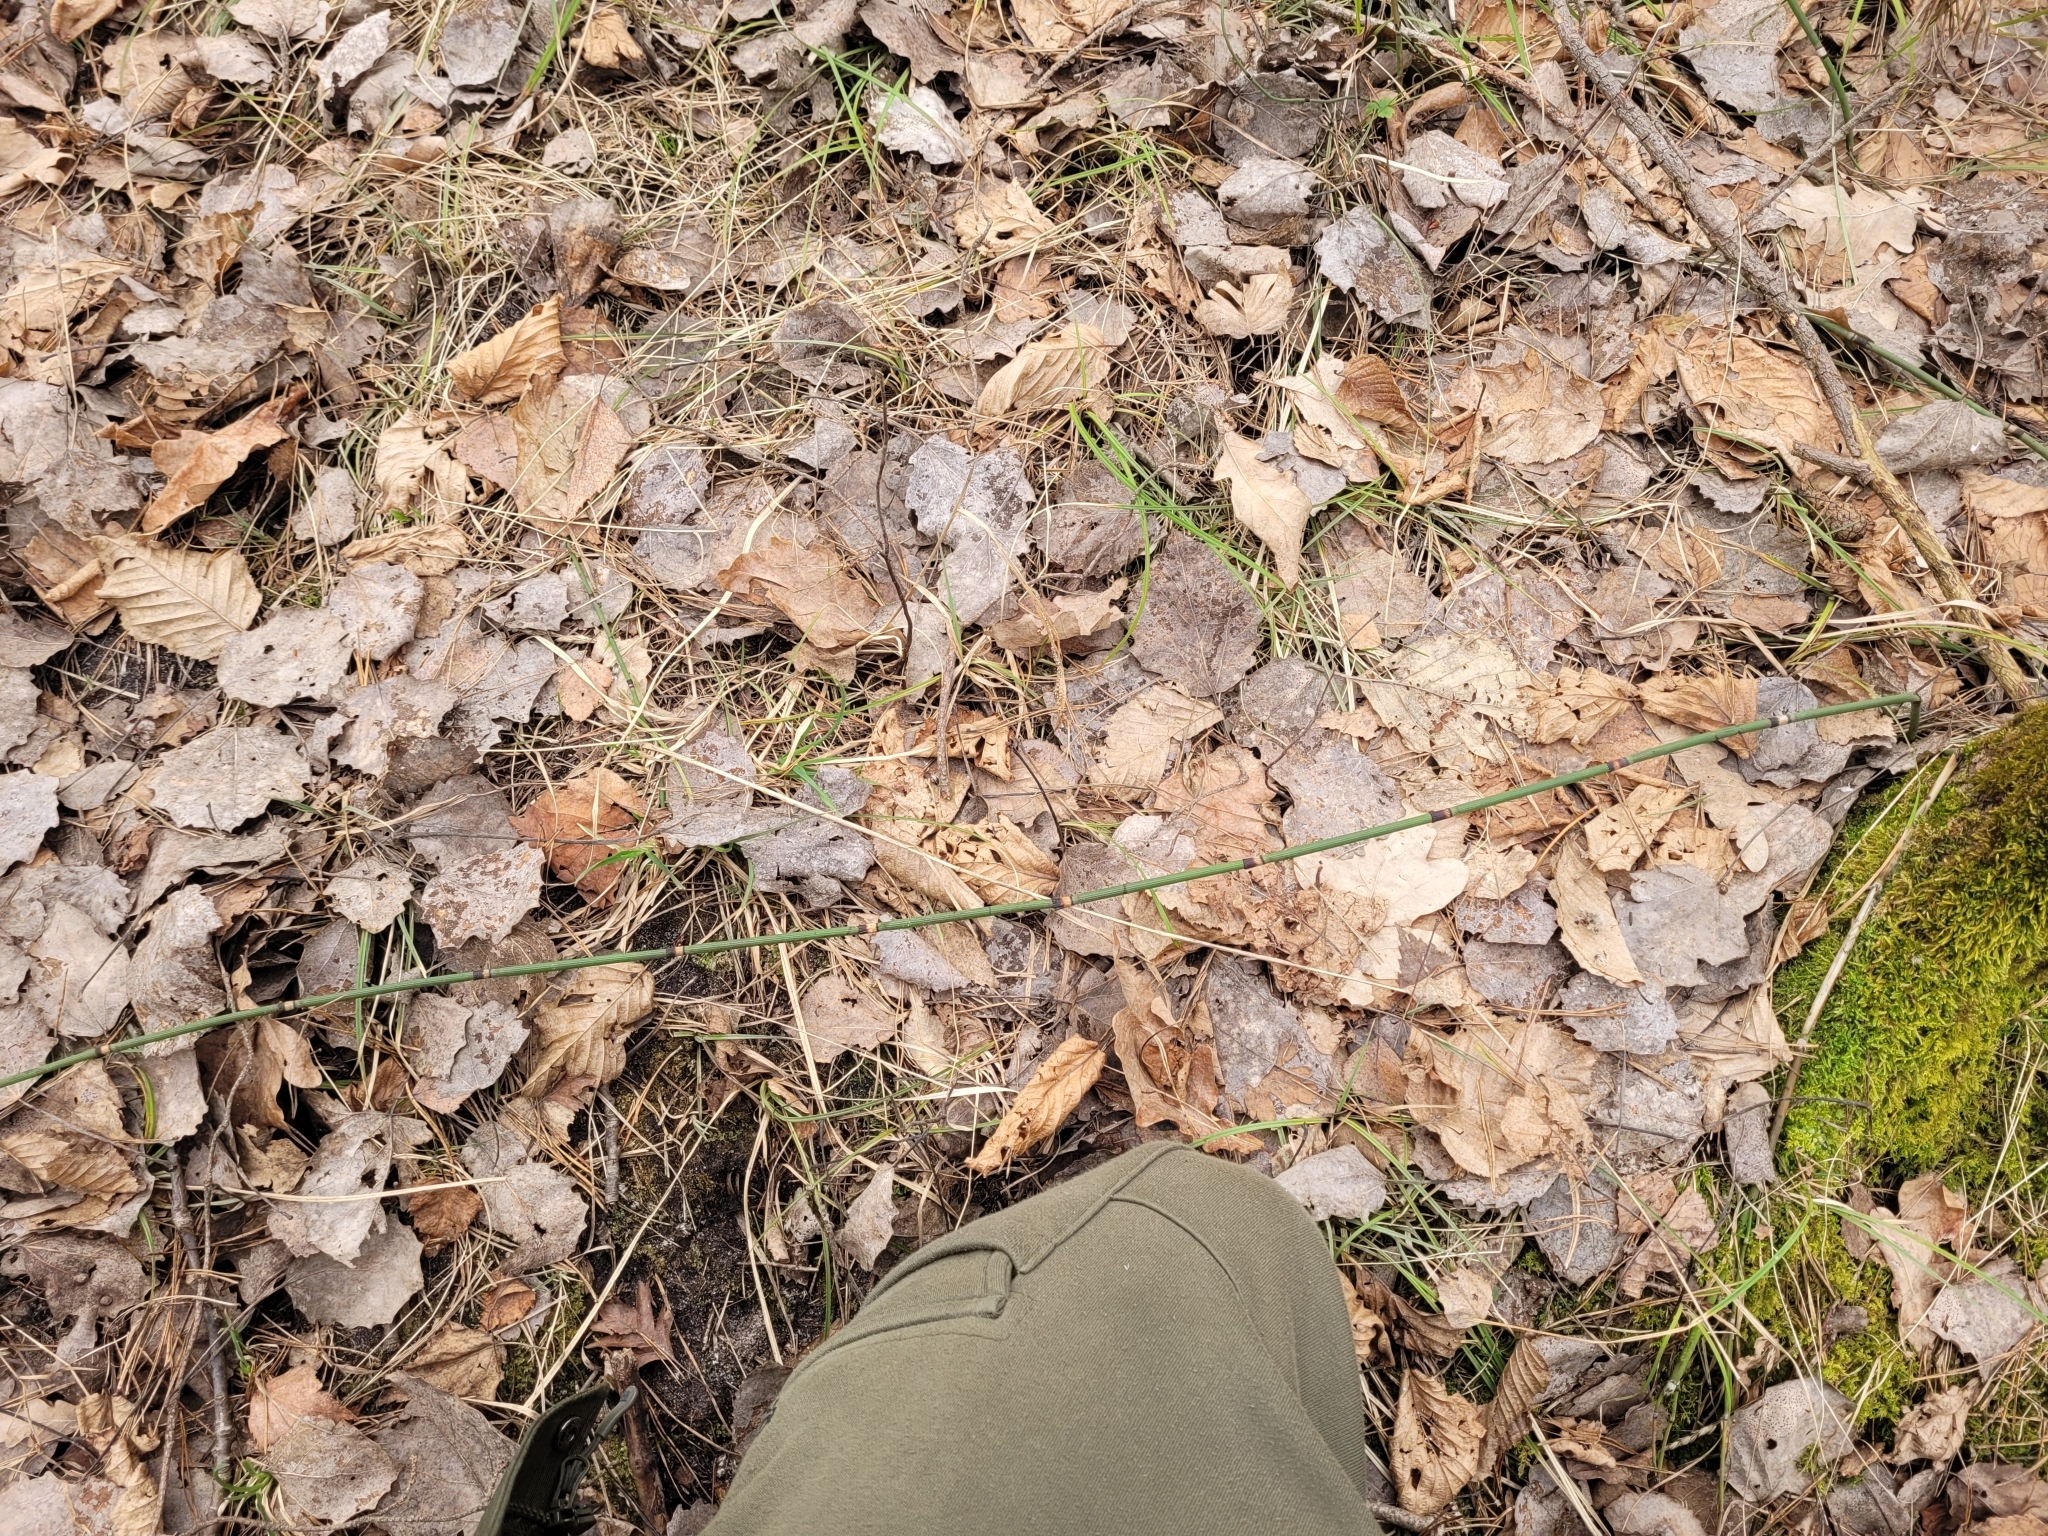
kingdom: Plantae
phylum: Tracheophyta
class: Polypodiopsida
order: Equisetales
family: Equisetaceae
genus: Equisetum
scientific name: Equisetum hyemale
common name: Rough horsetail
